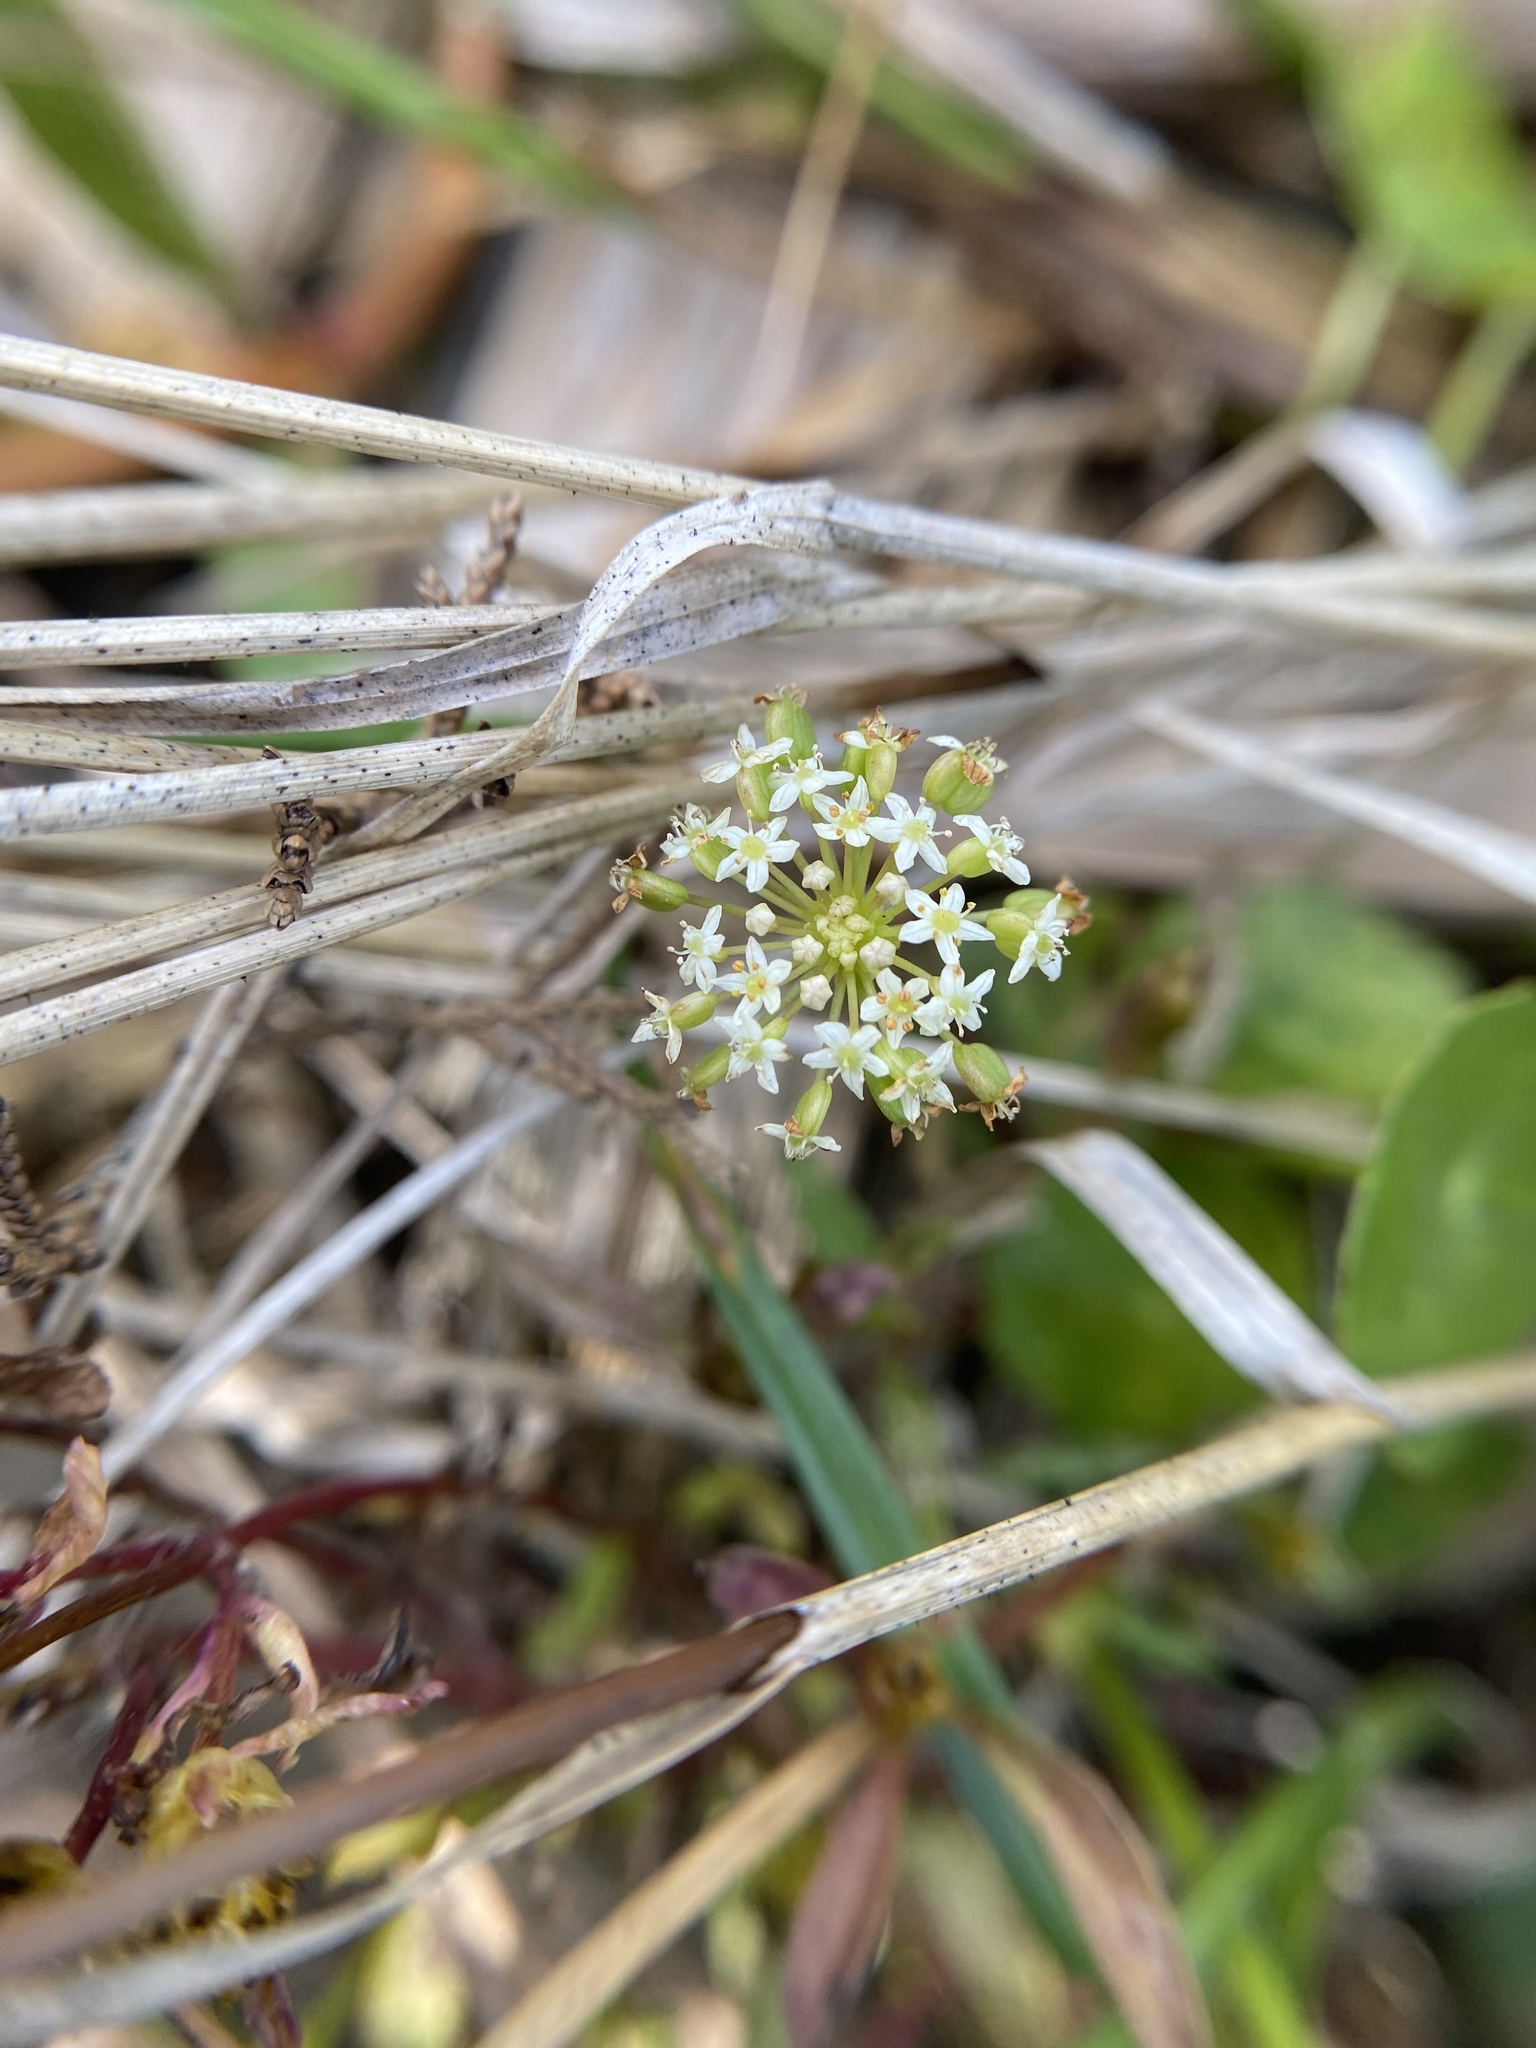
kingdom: Plantae
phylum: Tracheophyta
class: Magnoliopsida
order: Apiales
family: Araliaceae
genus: Hydrocotyle
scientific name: Hydrocotyle umbellata
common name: Water pennywort
